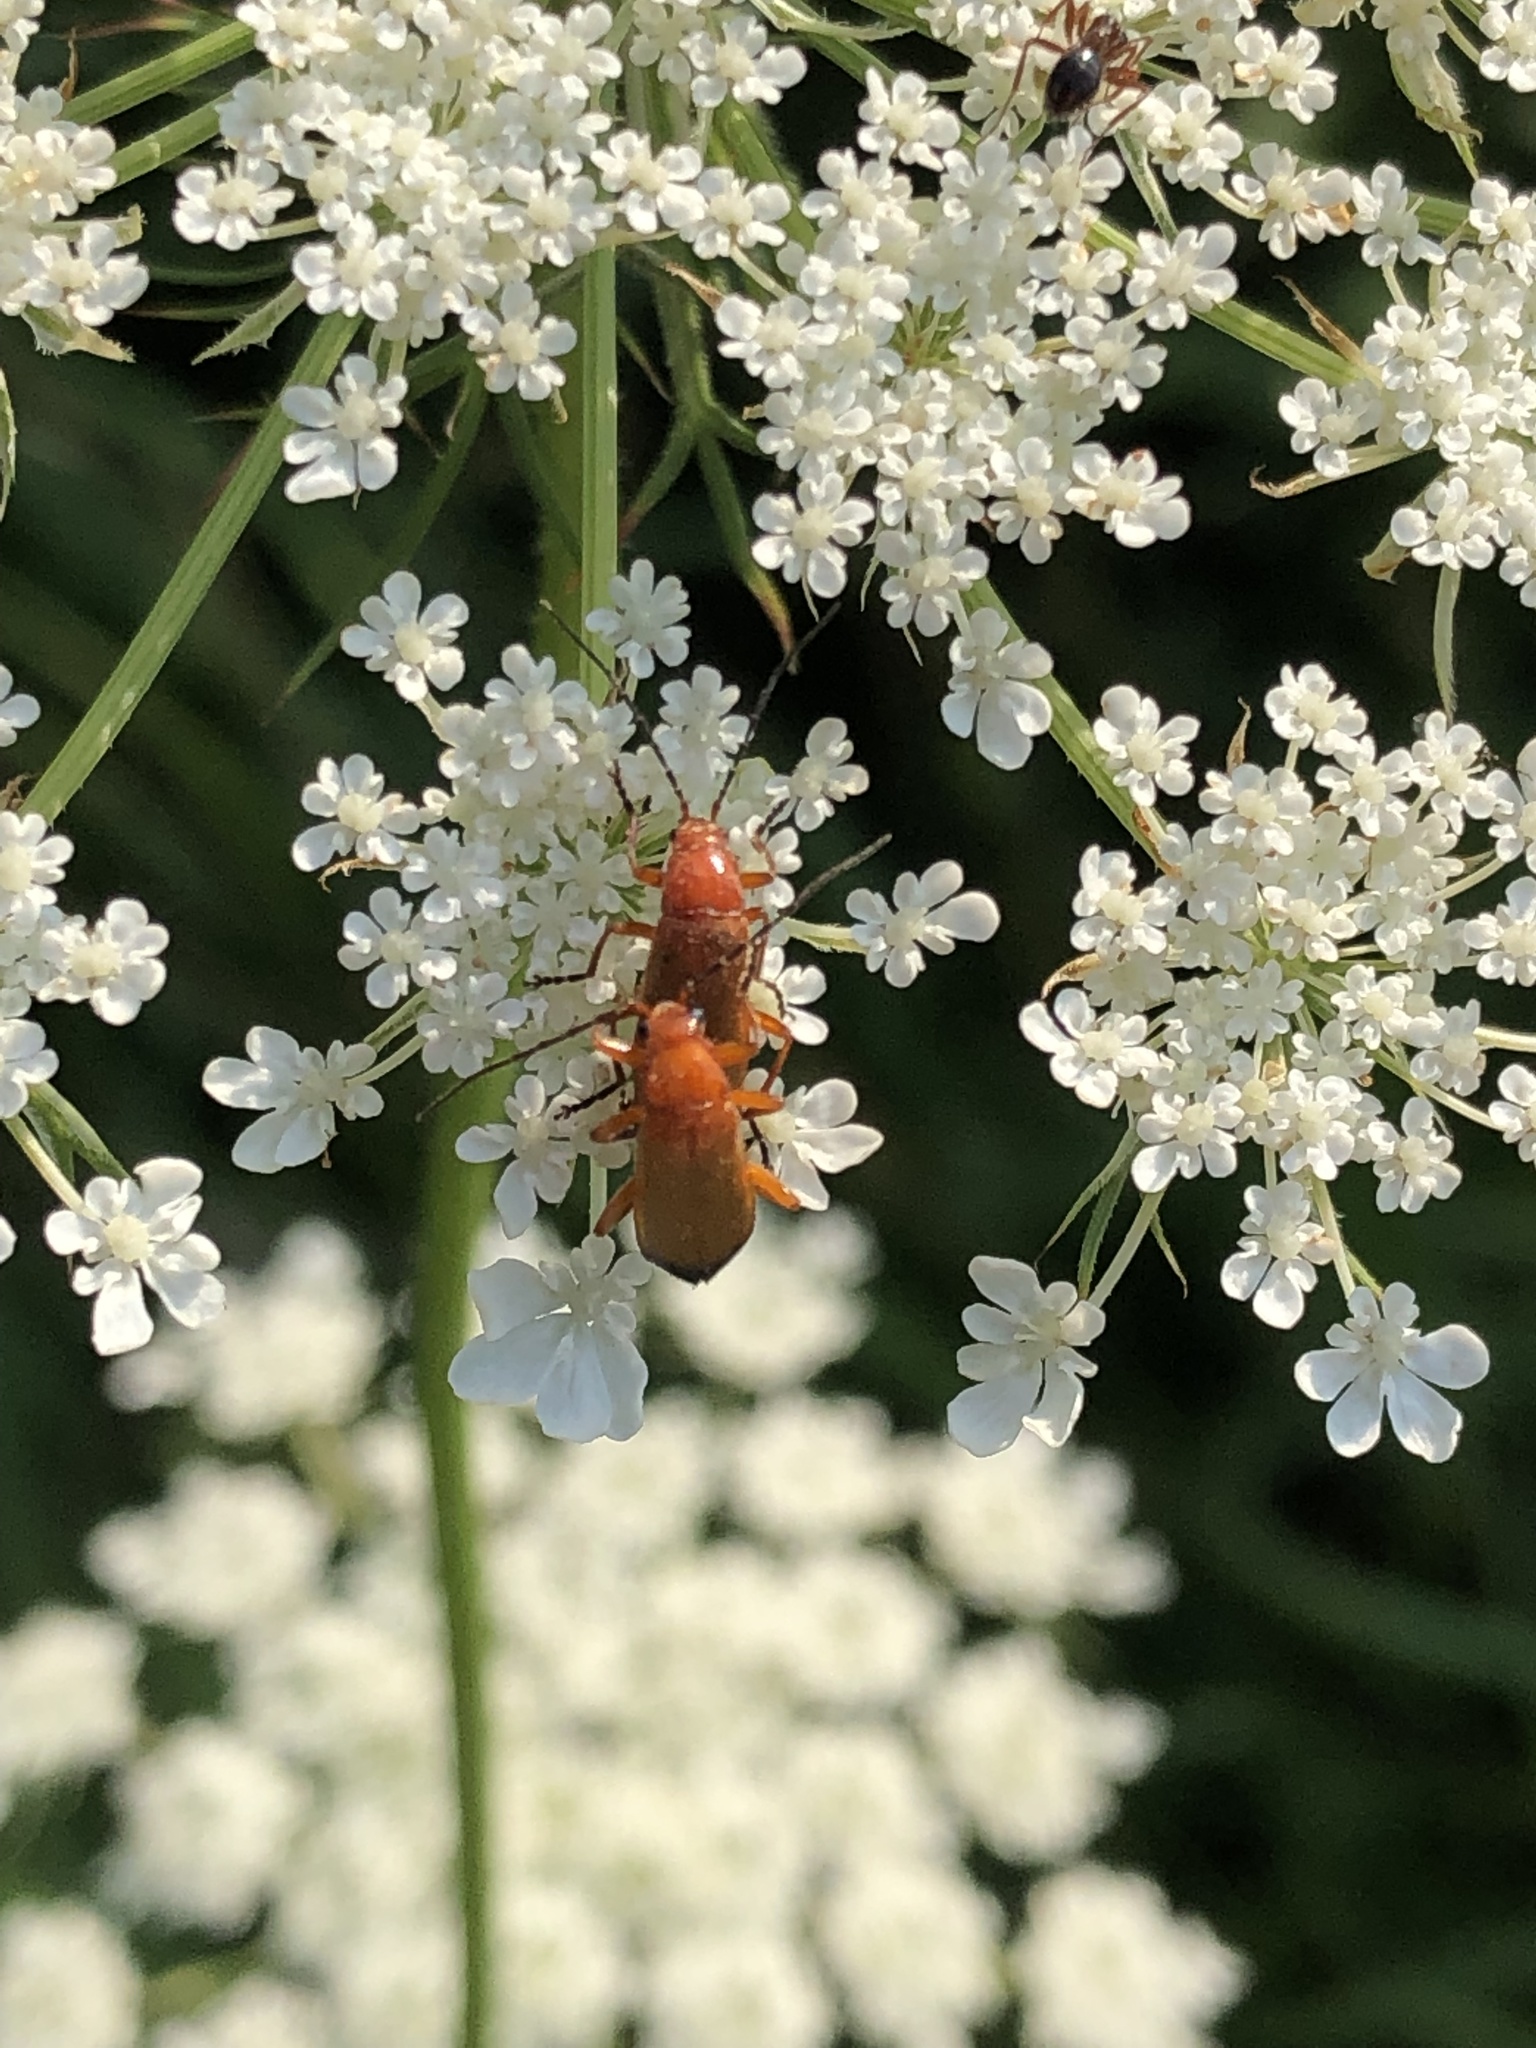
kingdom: Animalia
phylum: Arthropoda
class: Insecta
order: Coleoptera
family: Cantharidae
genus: Rhagonycha
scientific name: Rhagonycha fulva
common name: Common red soldier beetle
